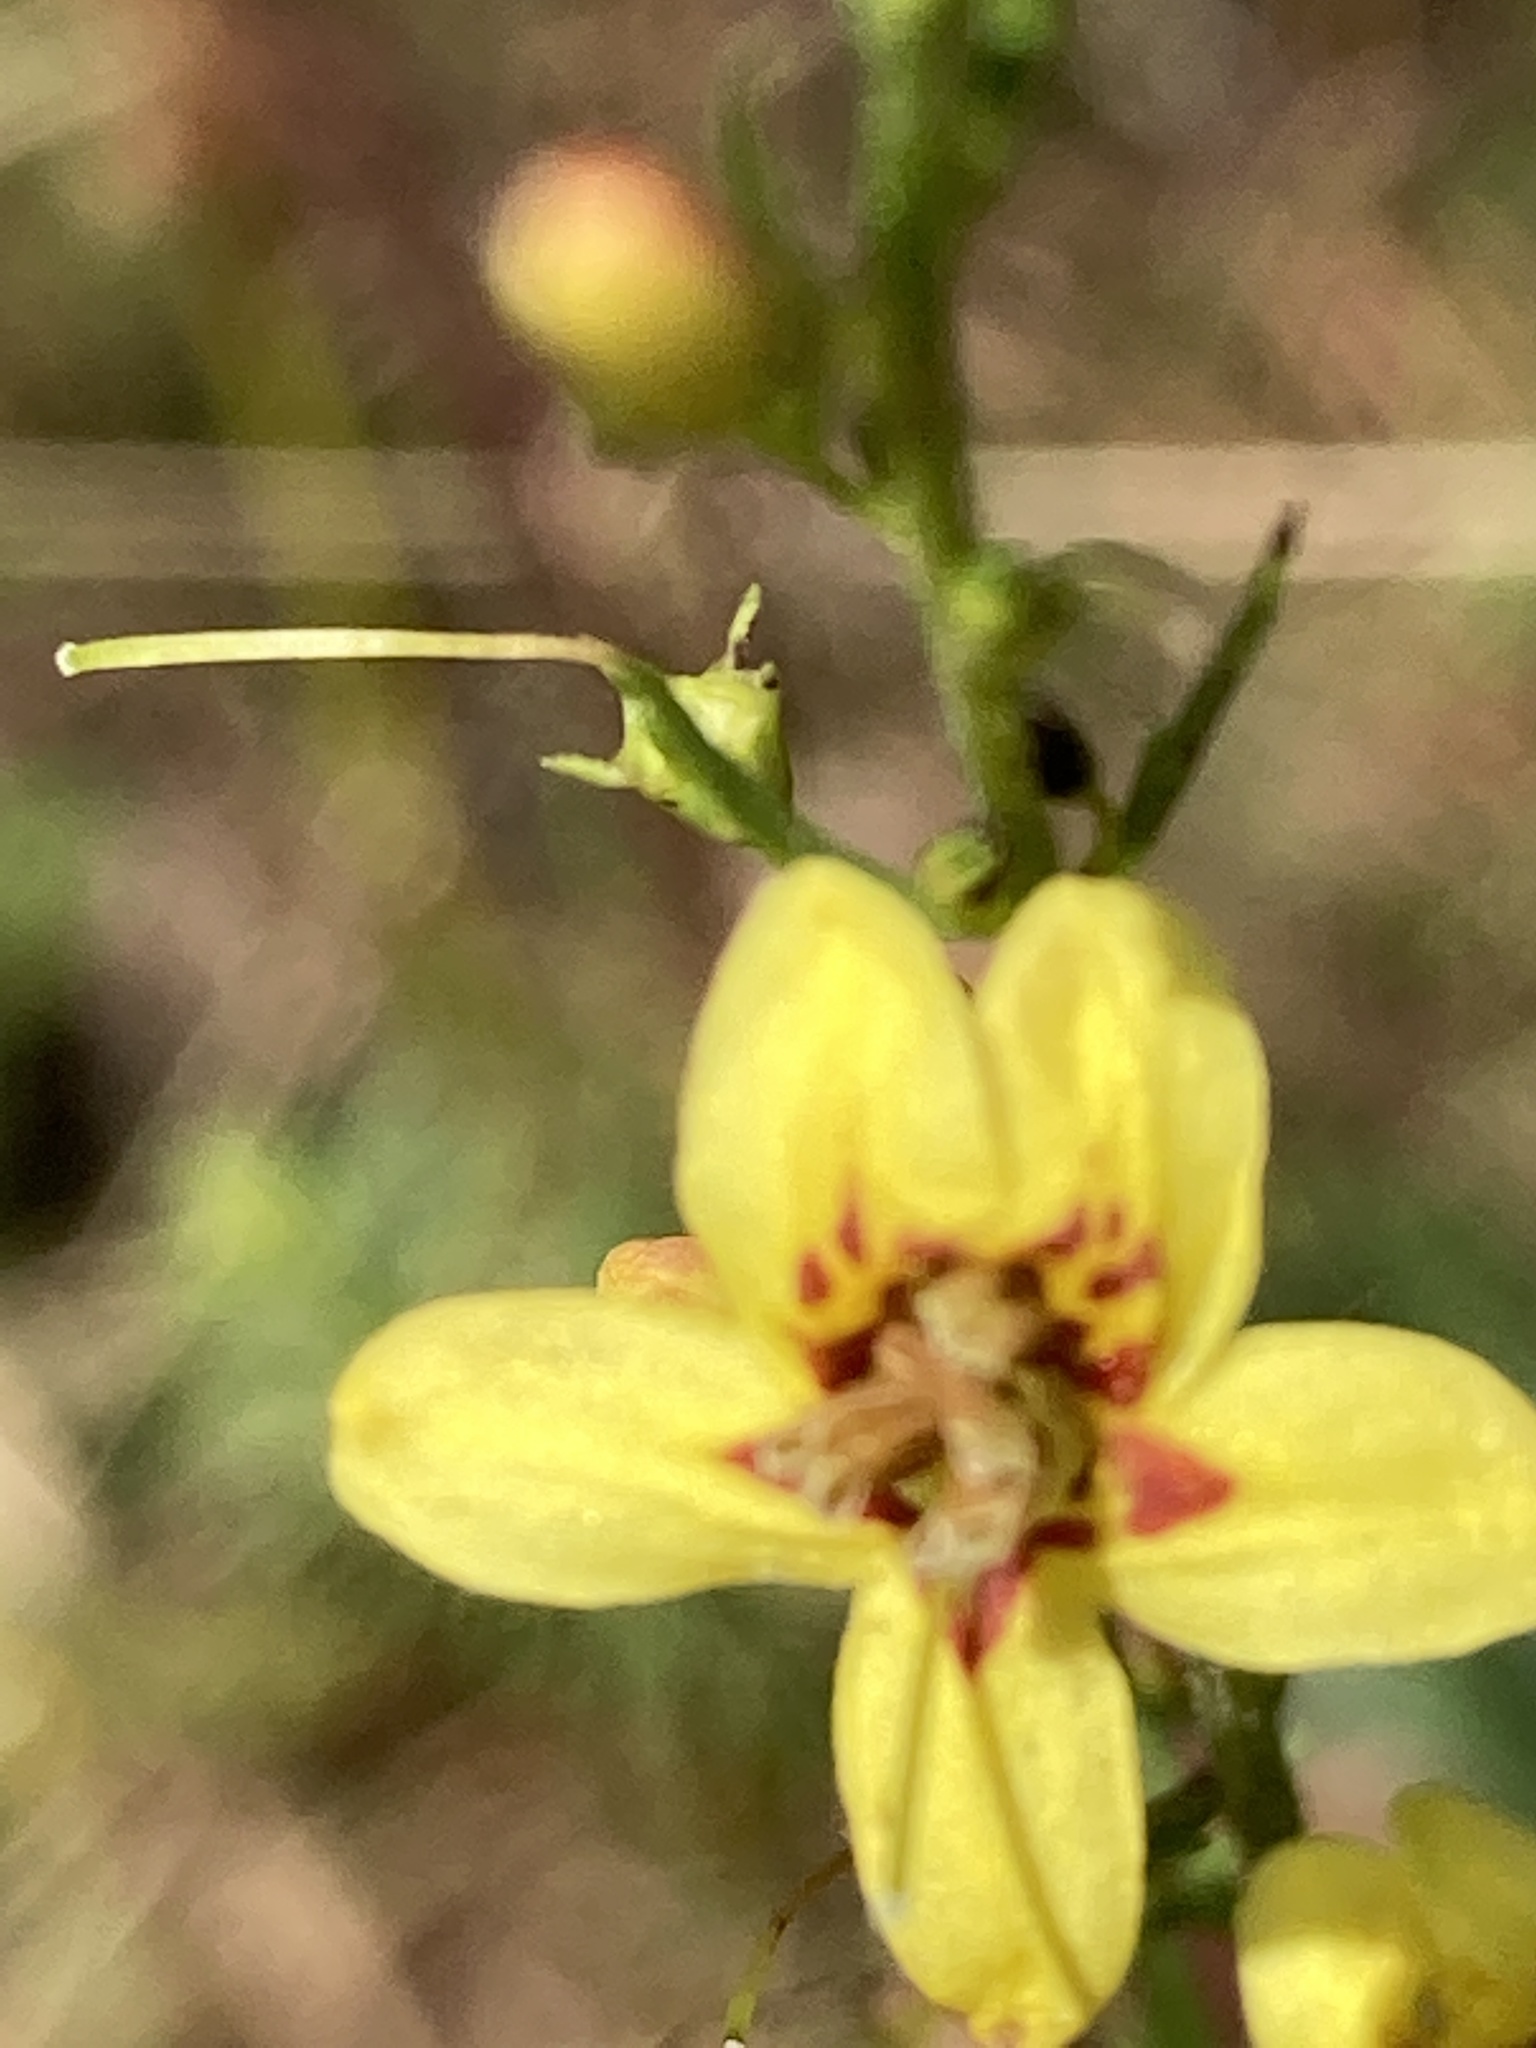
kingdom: Plantae
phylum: Tracheophyta
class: Magnoliopsida
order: Lamiales
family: Orobanchaceae
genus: Seymeria
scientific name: Seymeria cassioides
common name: Yaupon black-senna
